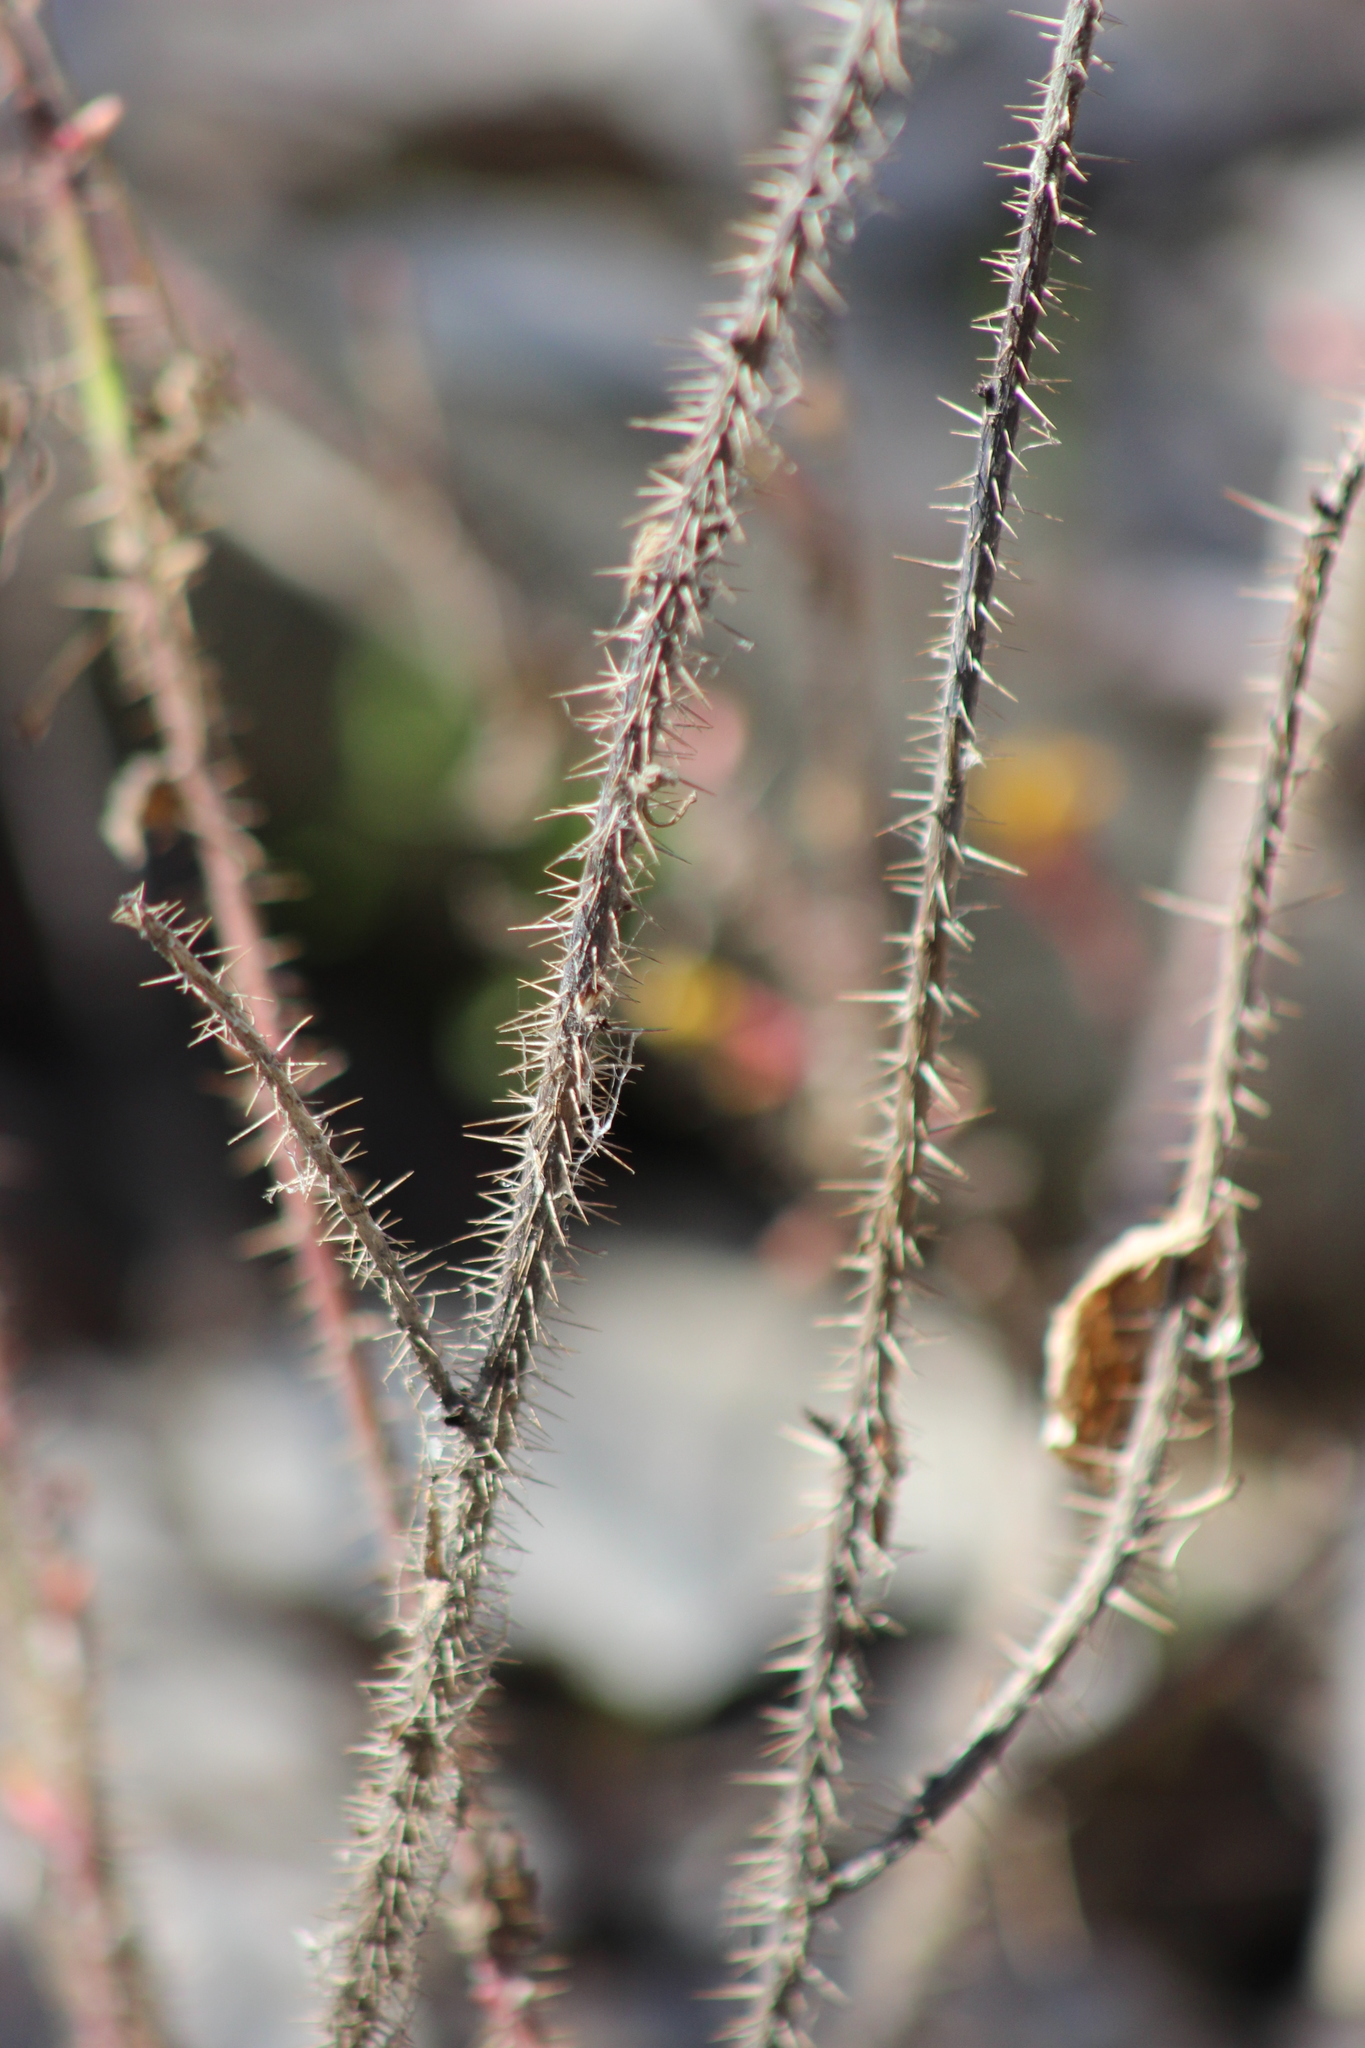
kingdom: Plantae
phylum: Tracheophyta
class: Magnoliopsida
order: Rosales
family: Rosaceae
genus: Rosa
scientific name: Rosa acicularis
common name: Prickly rose
